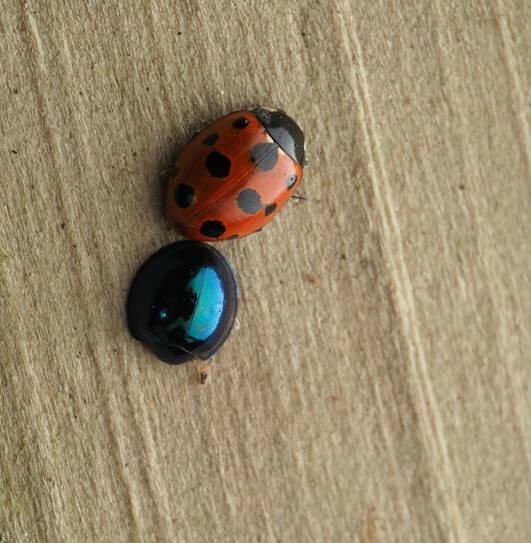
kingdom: Animalia
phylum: Arthropoda
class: Insecta
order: Coleoptera
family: Coccinellidae
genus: Halmus
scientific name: Halmus chalybeus
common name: Steel blue ladybird beetle
